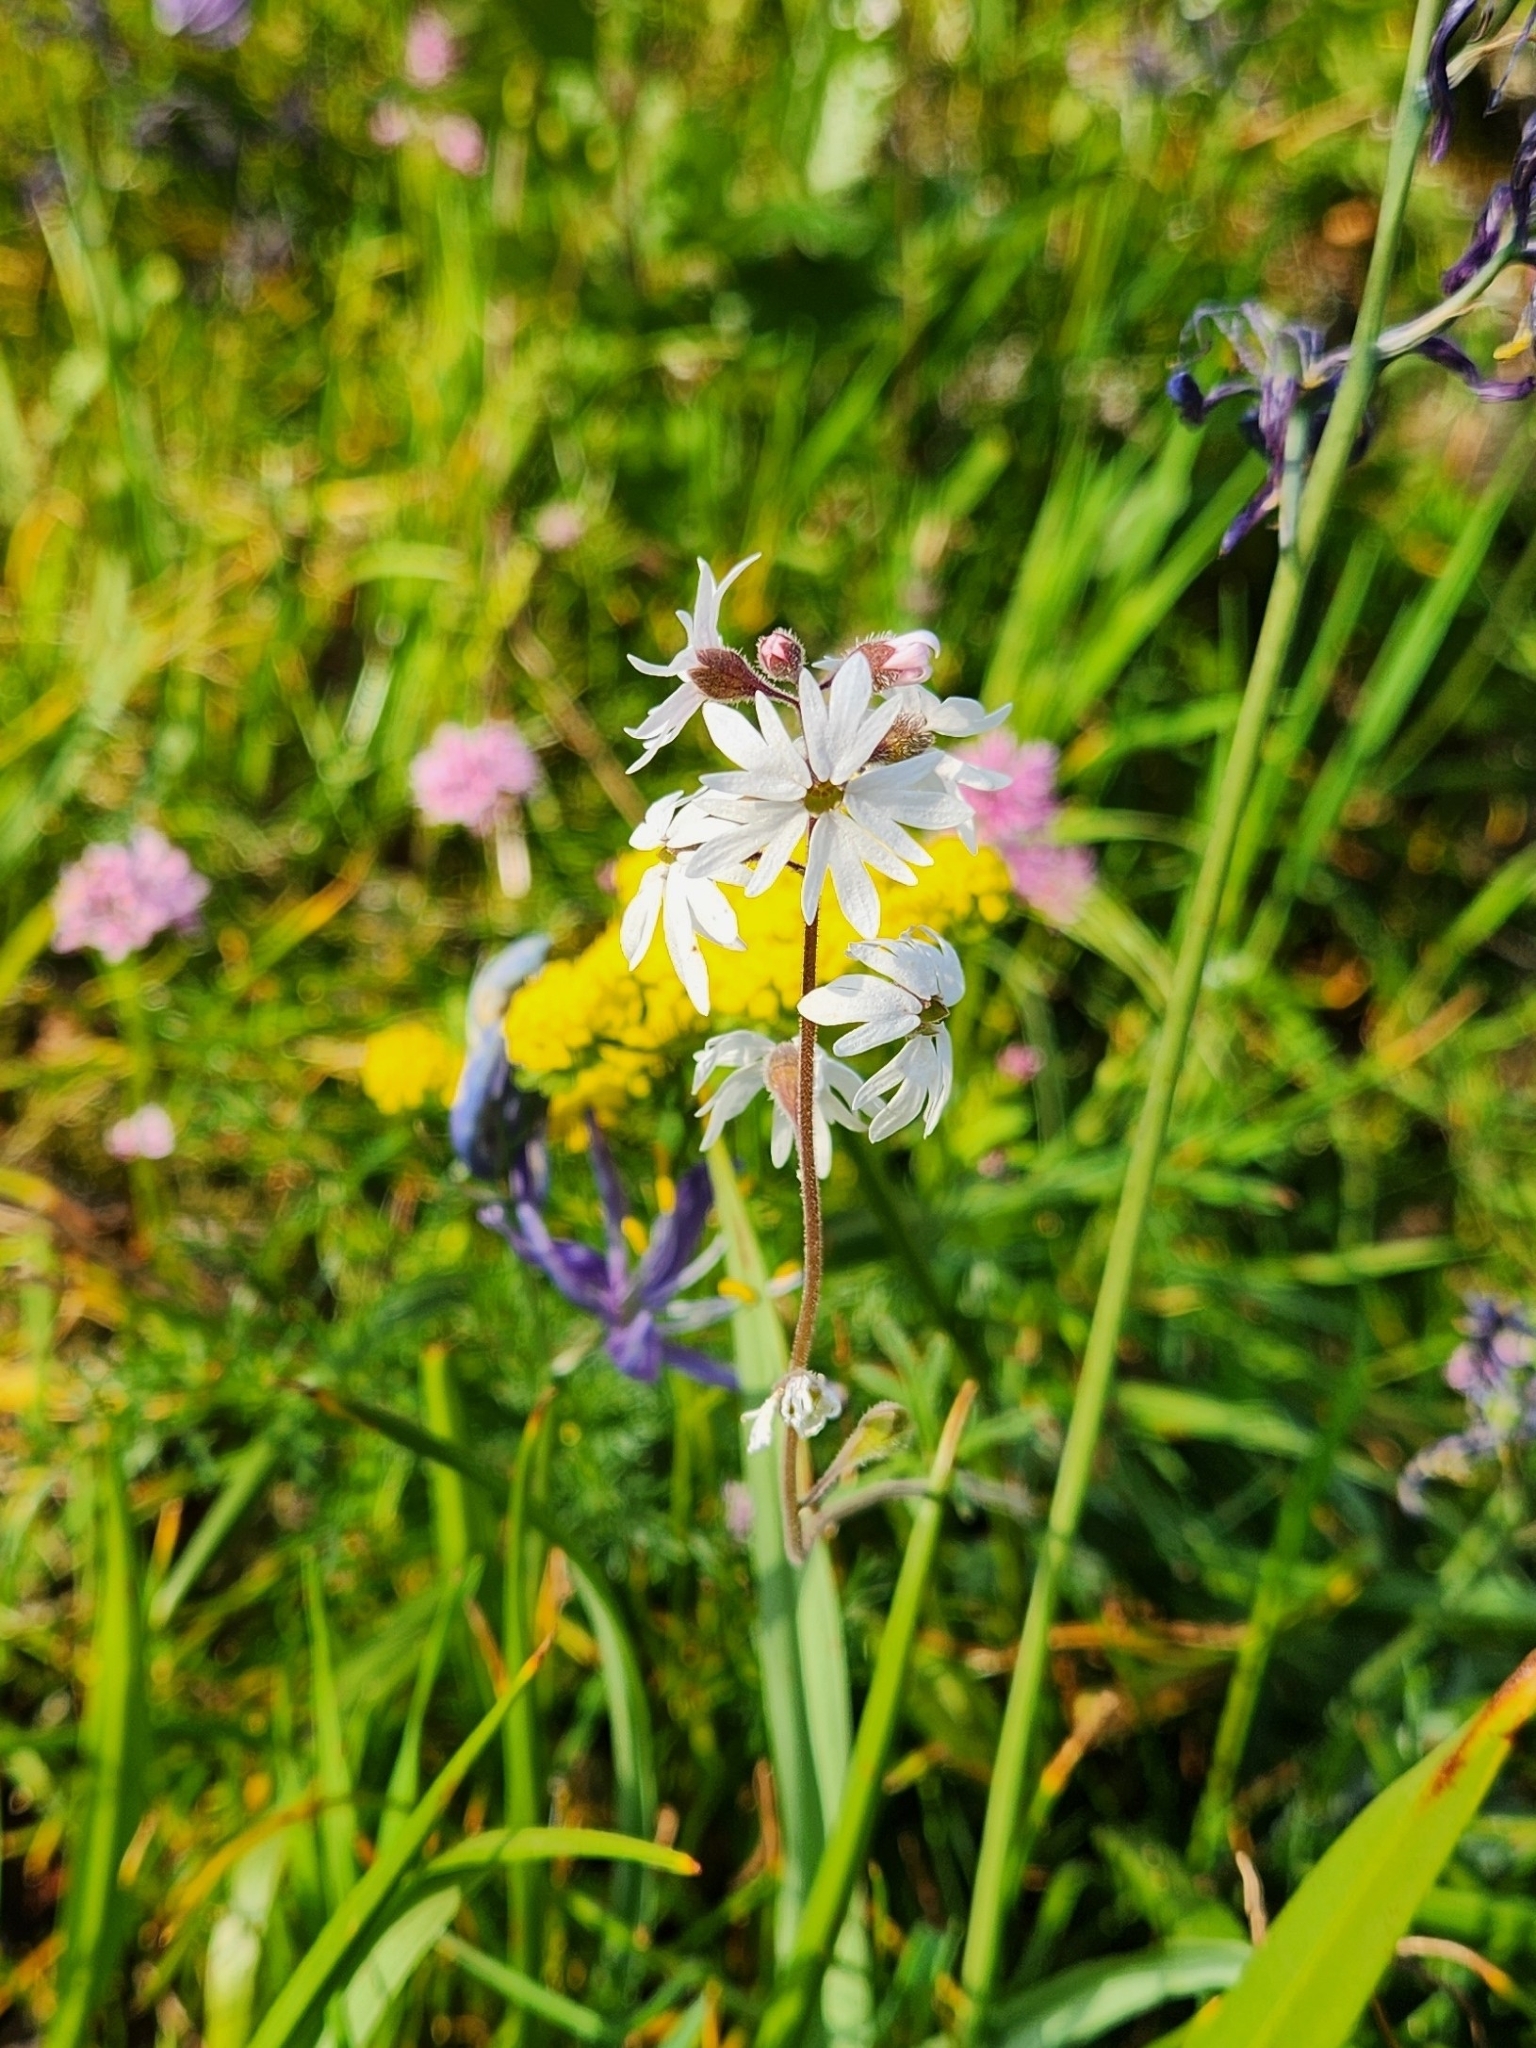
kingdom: Plantae
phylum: Tracheophyta
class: Magnoliopsida
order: Saxifragales
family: Saxifragaceae
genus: Lithophragma
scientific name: Lithophragma parviflorum
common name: Small-flowered fringe-cup
